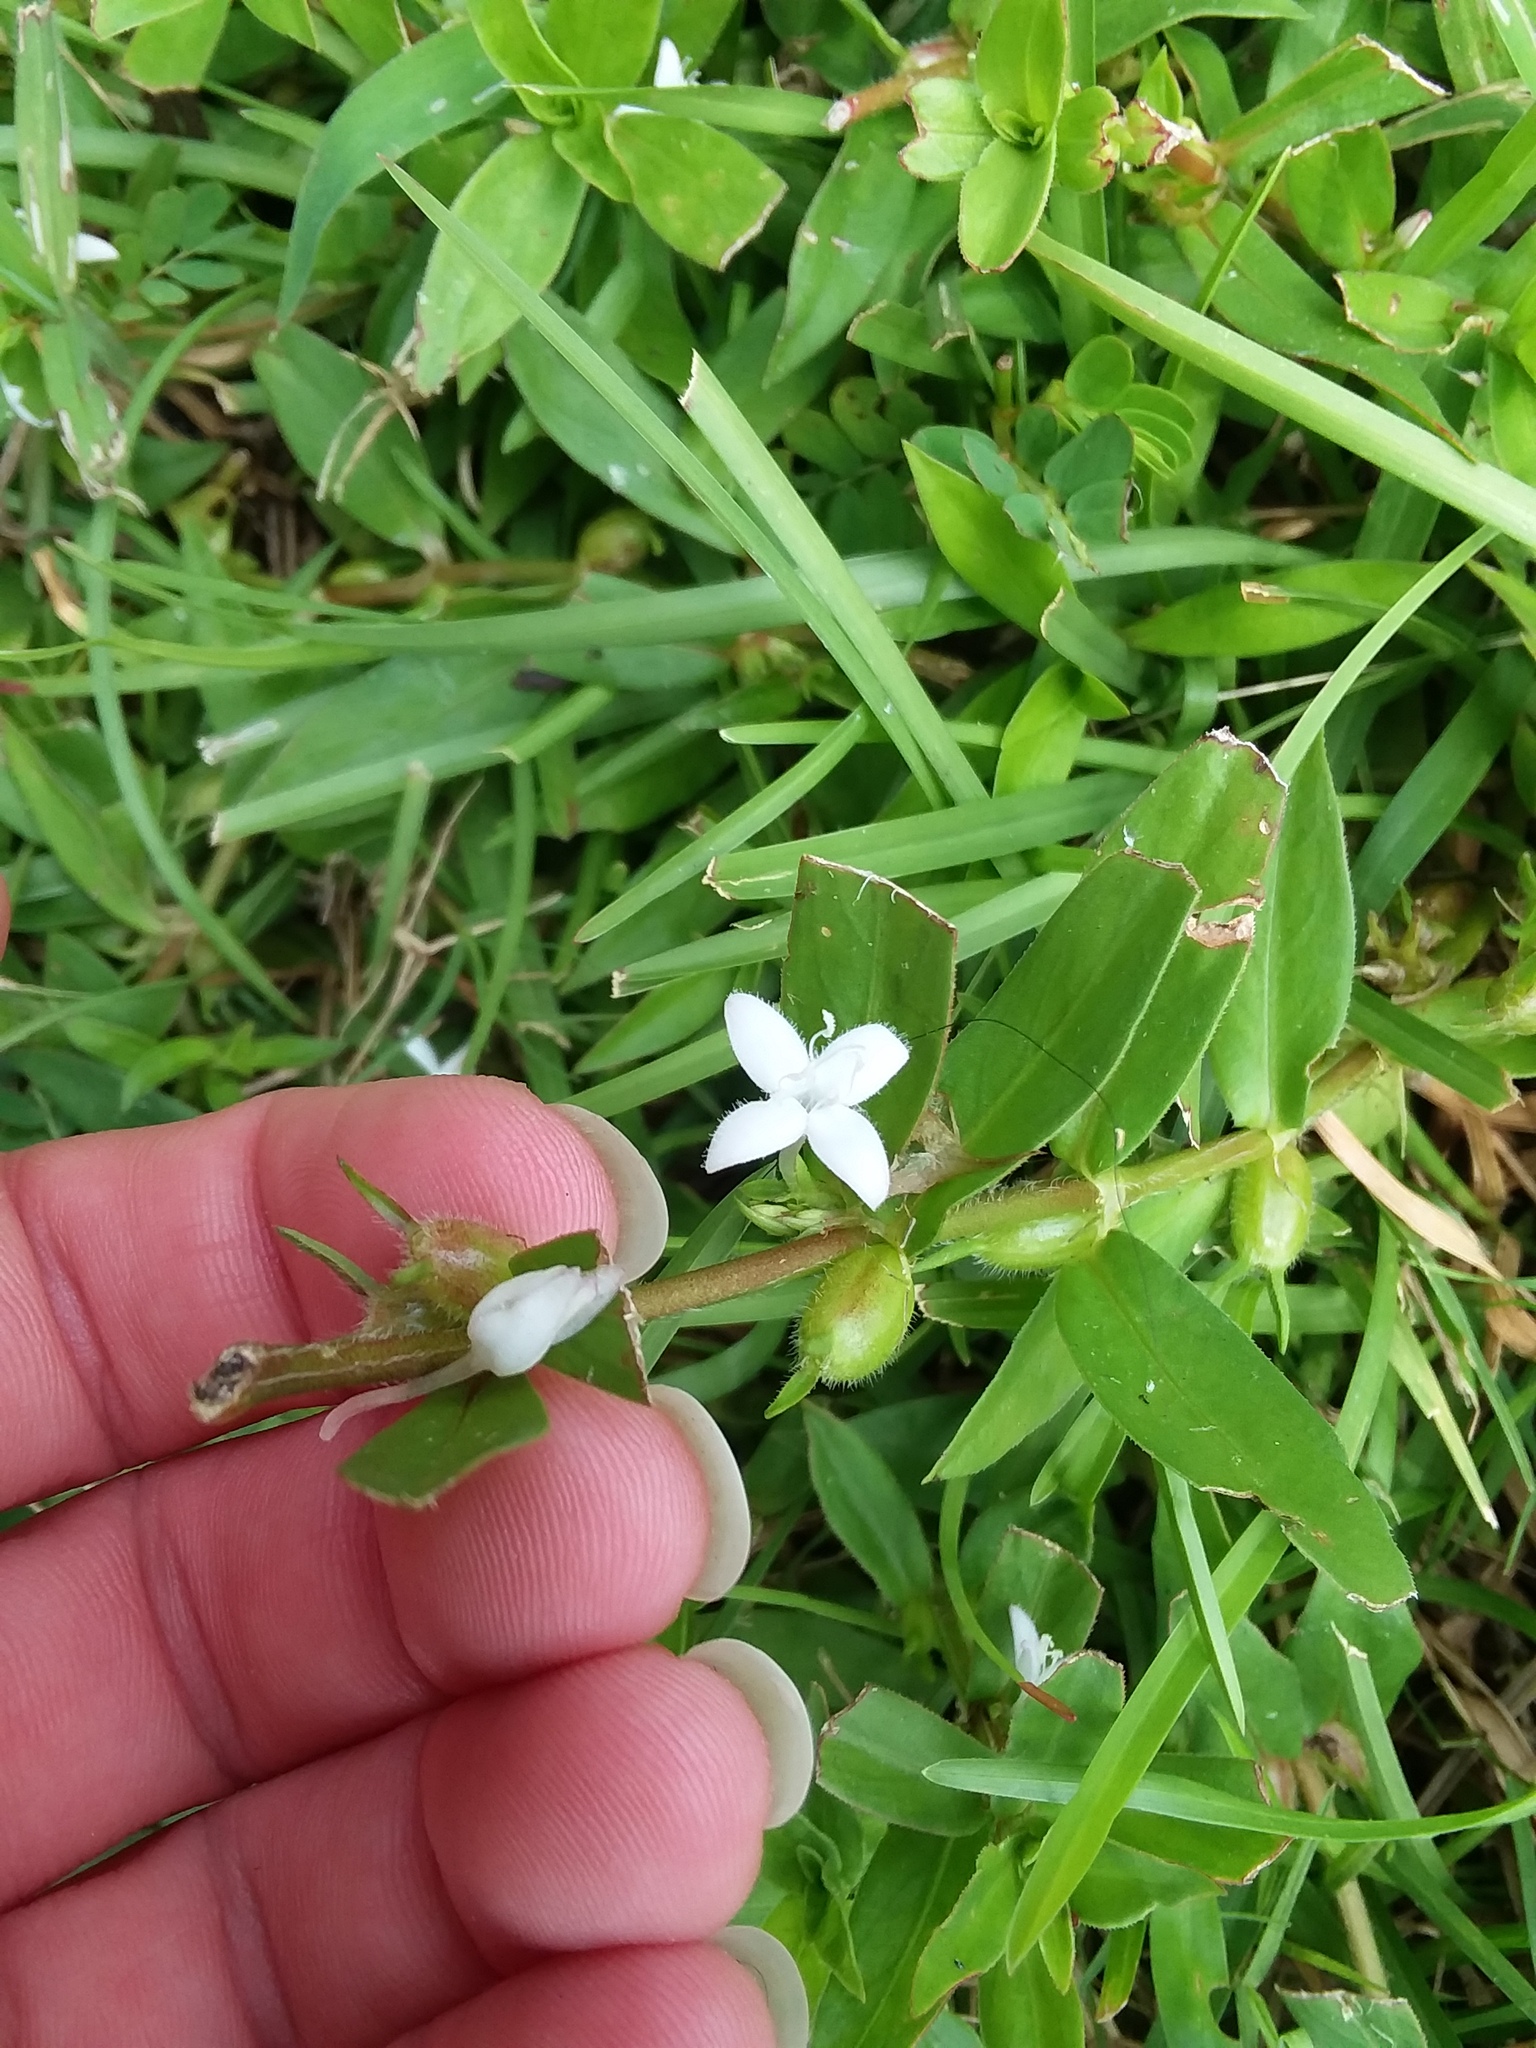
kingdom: Plantae
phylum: Tracheophyta
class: Magnoliopsida
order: Gentianales
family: Rubiaceae
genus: Diodia
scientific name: Diodia virginiana
